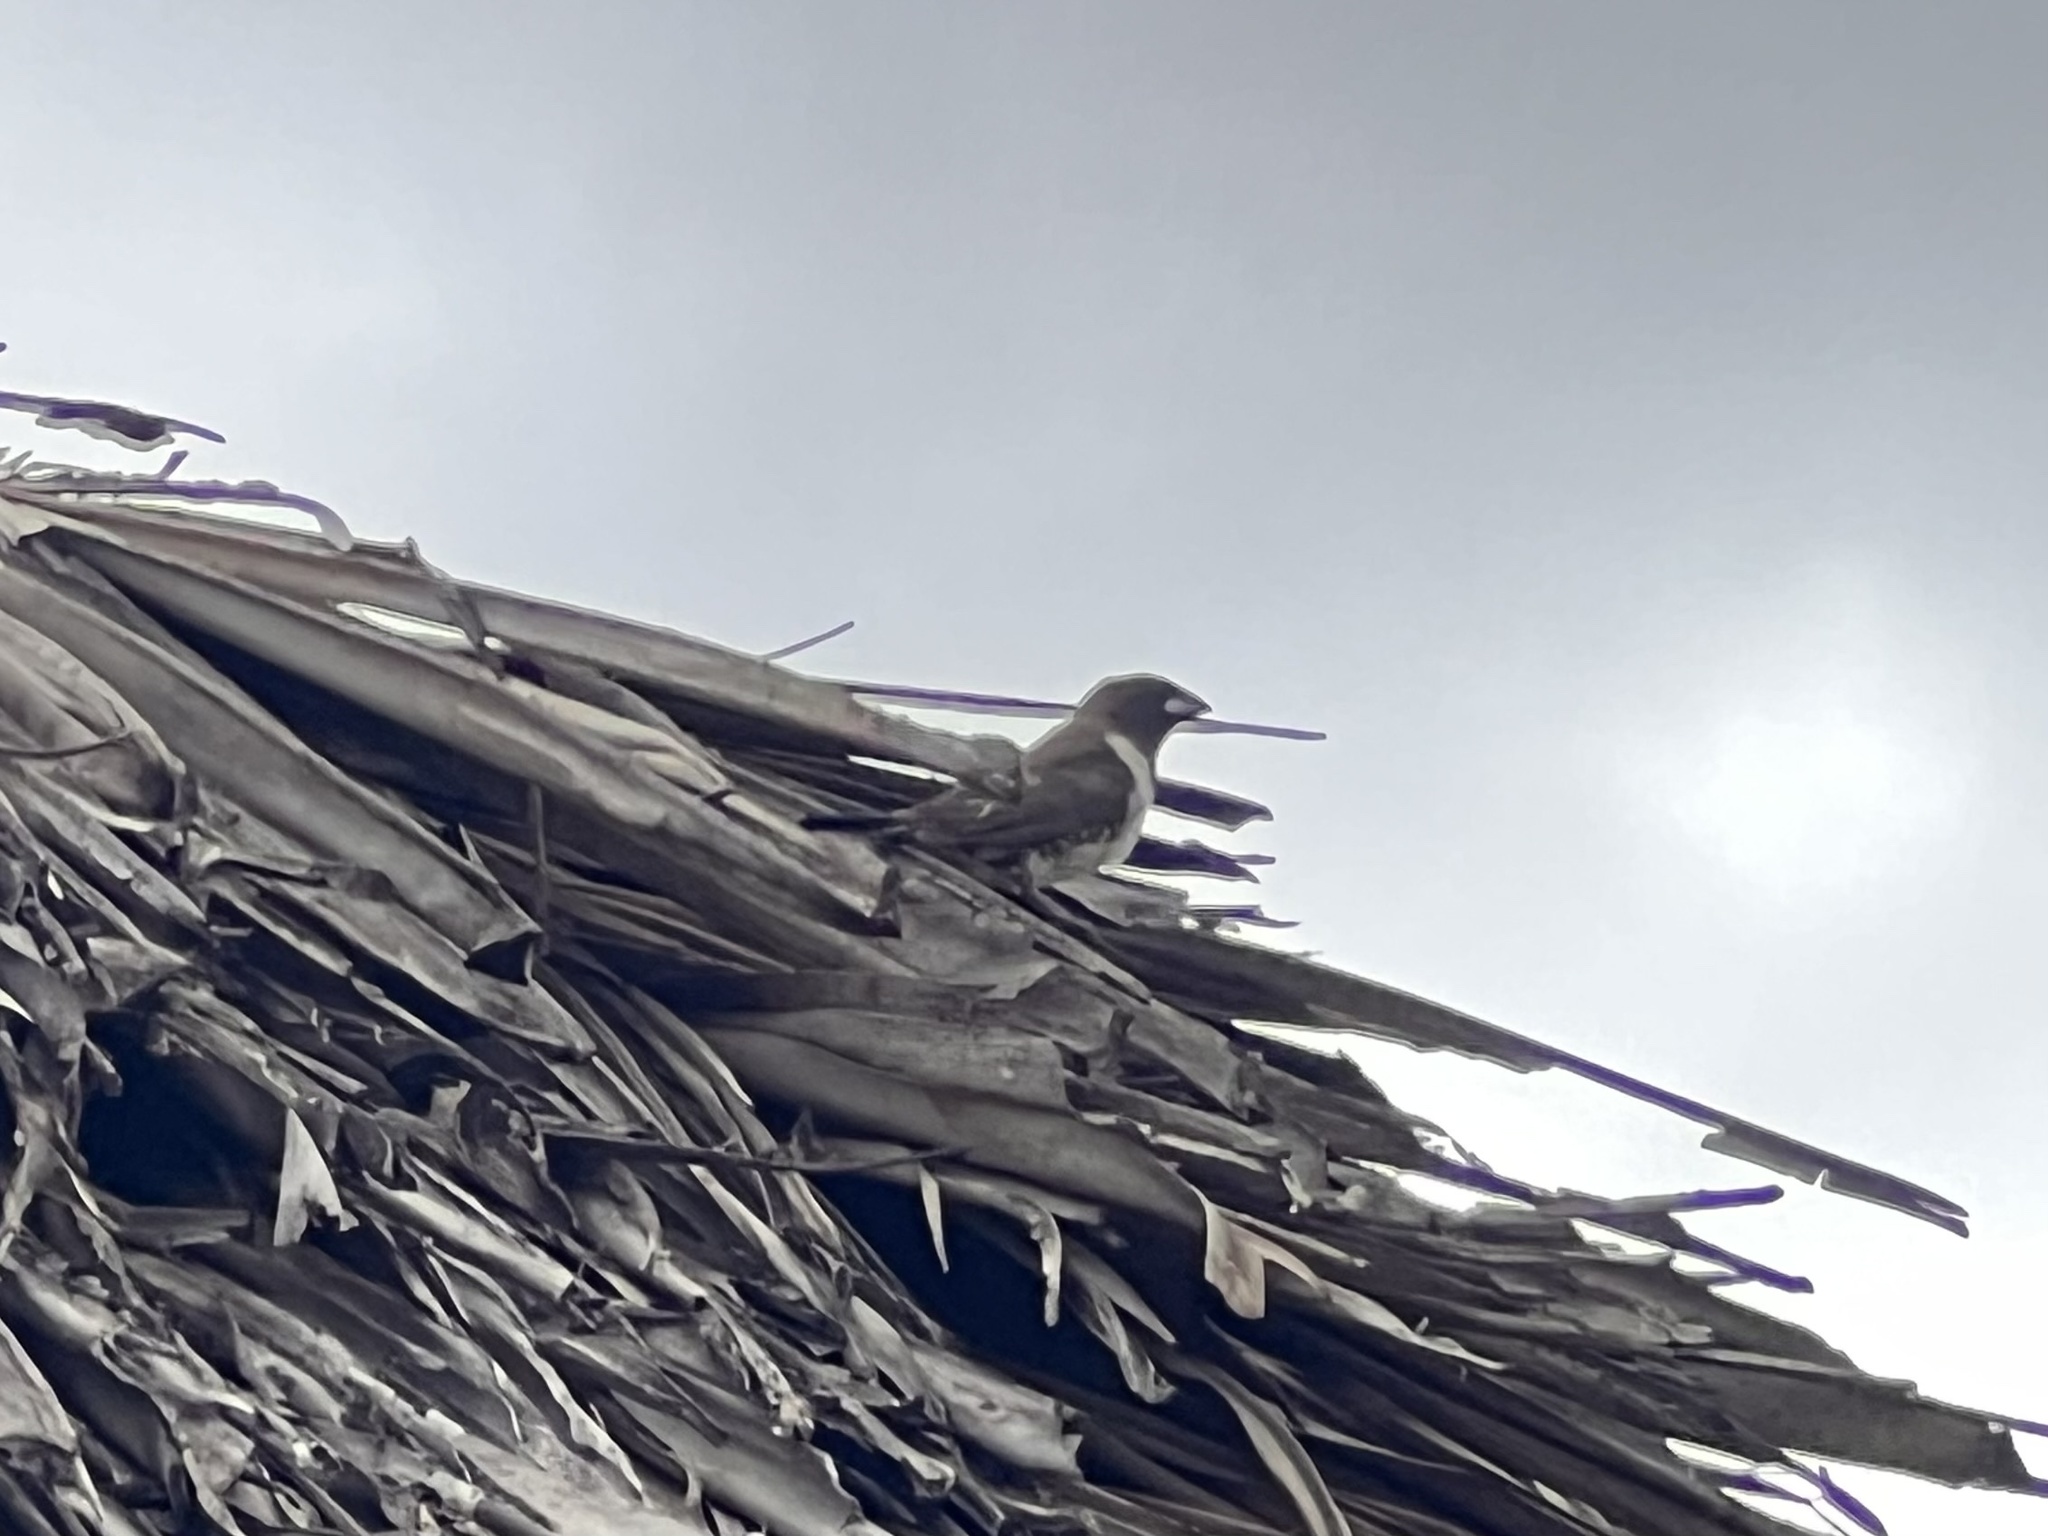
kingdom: Animalia
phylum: Chordata
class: Aves
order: Passeriformes
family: Estrildidae
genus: Lonchura
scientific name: Lonchura cucullata
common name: Bronze mannikin
